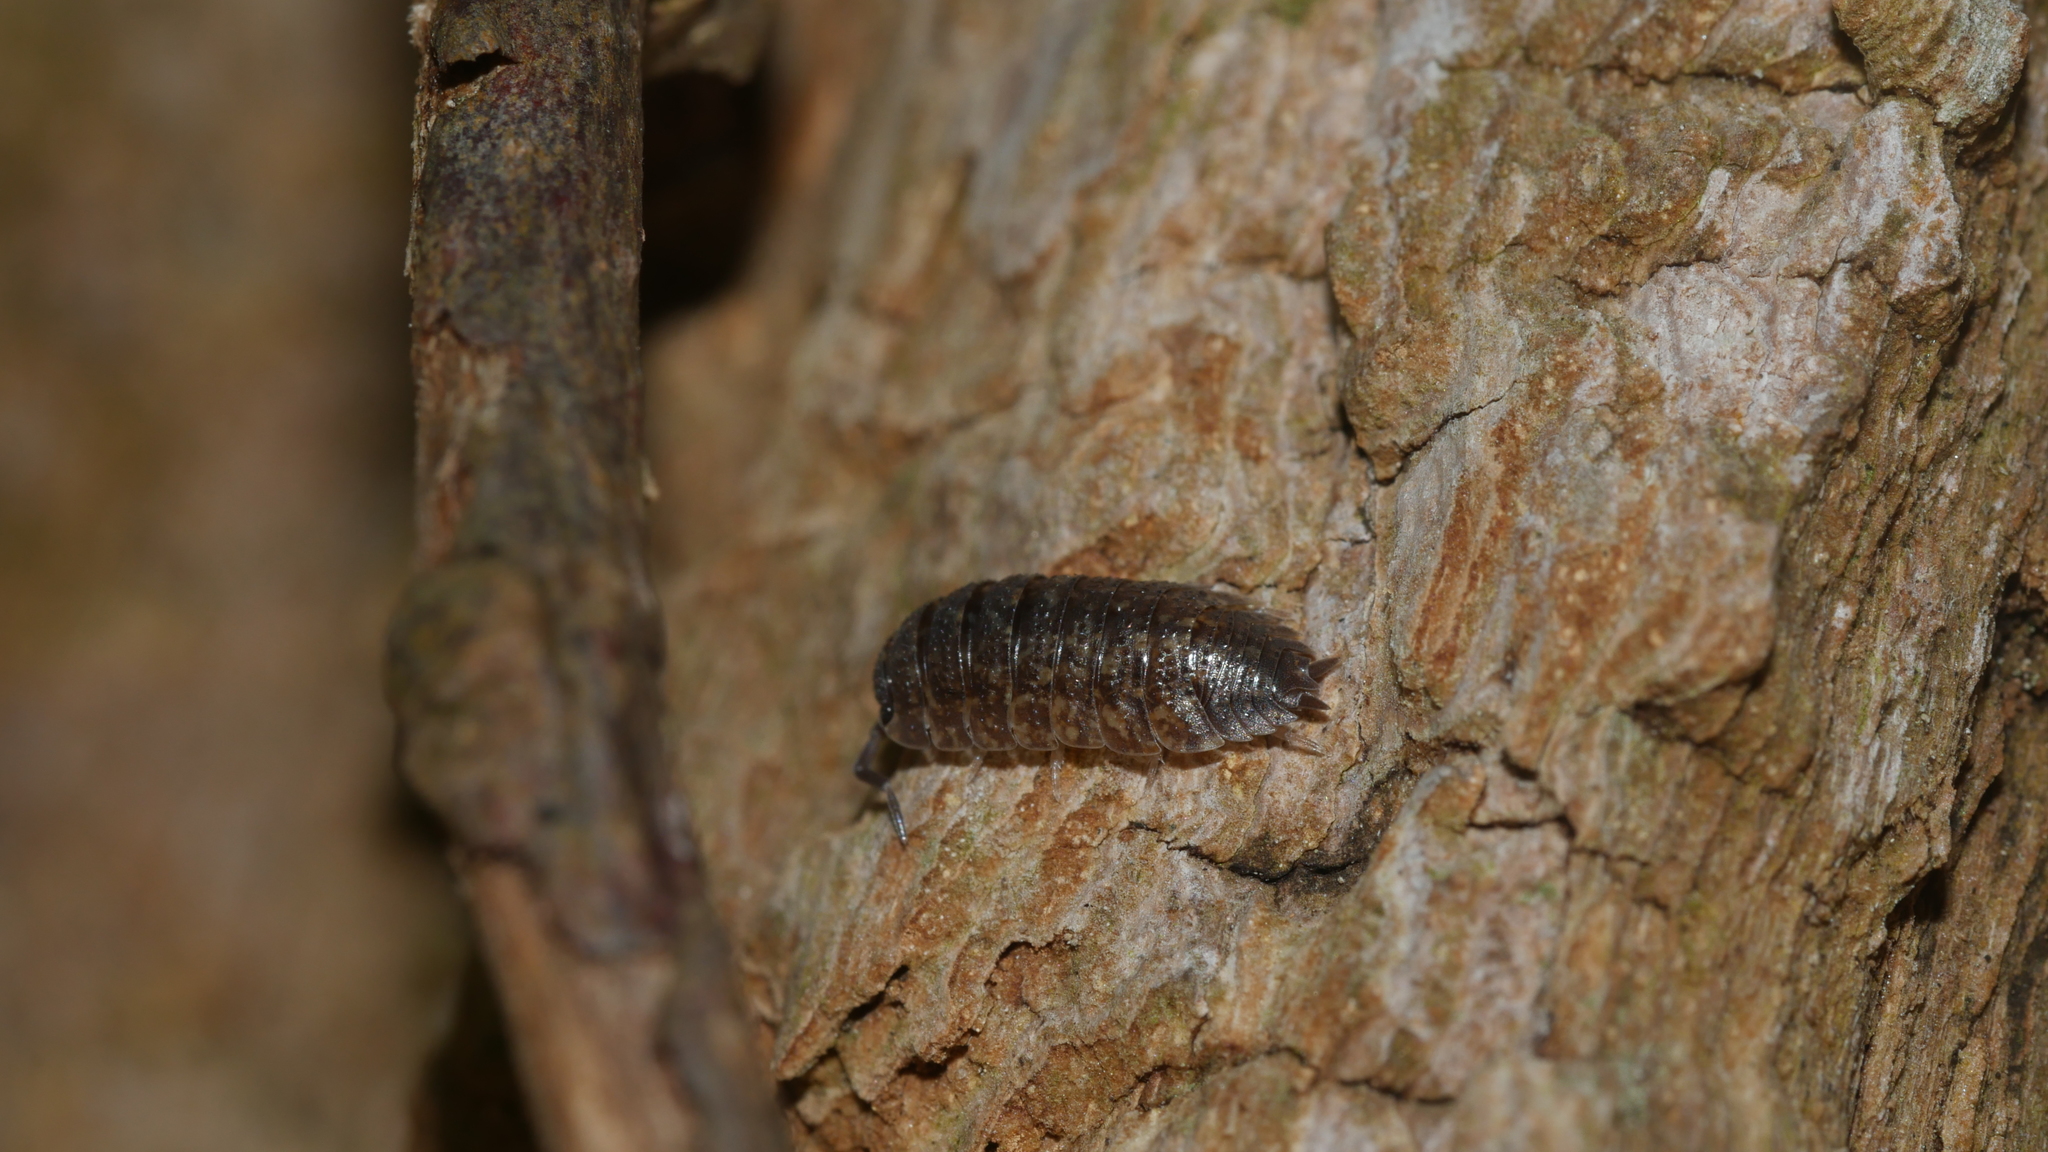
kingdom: Animalia
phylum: Arthropoda
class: Malacostraca
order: Isopoda
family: Porcellionidae
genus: Porcellio
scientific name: Porcellio scaber
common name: Common rough woodlouse
